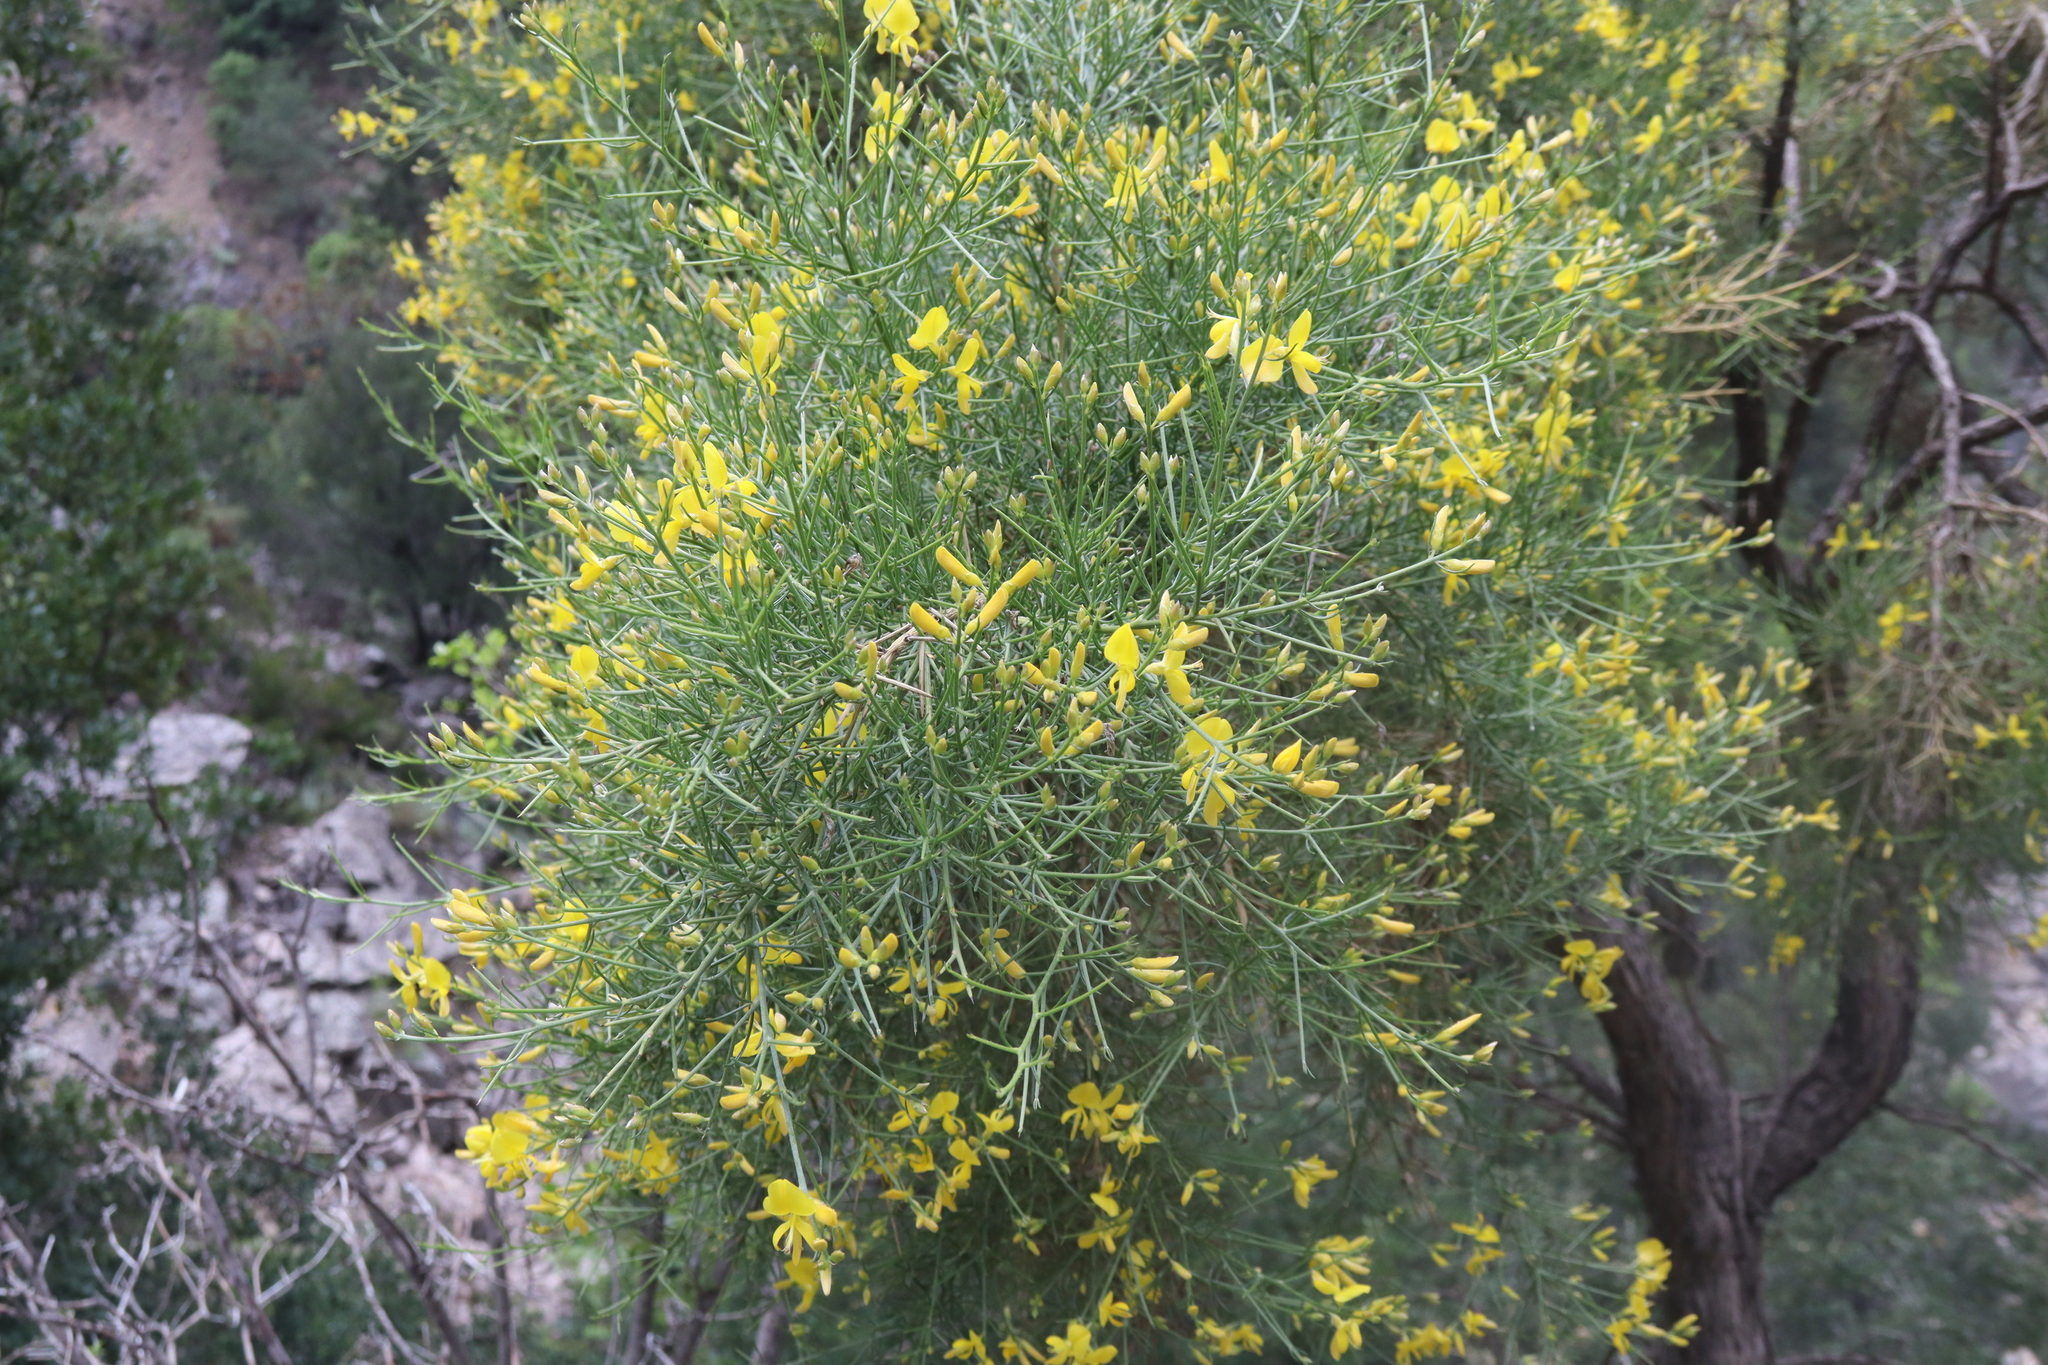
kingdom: Plantae
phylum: Tracheophyta
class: Magnoliopsida
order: Fabales
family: Fabaceae
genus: Genista
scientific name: Genista acanthoclada
